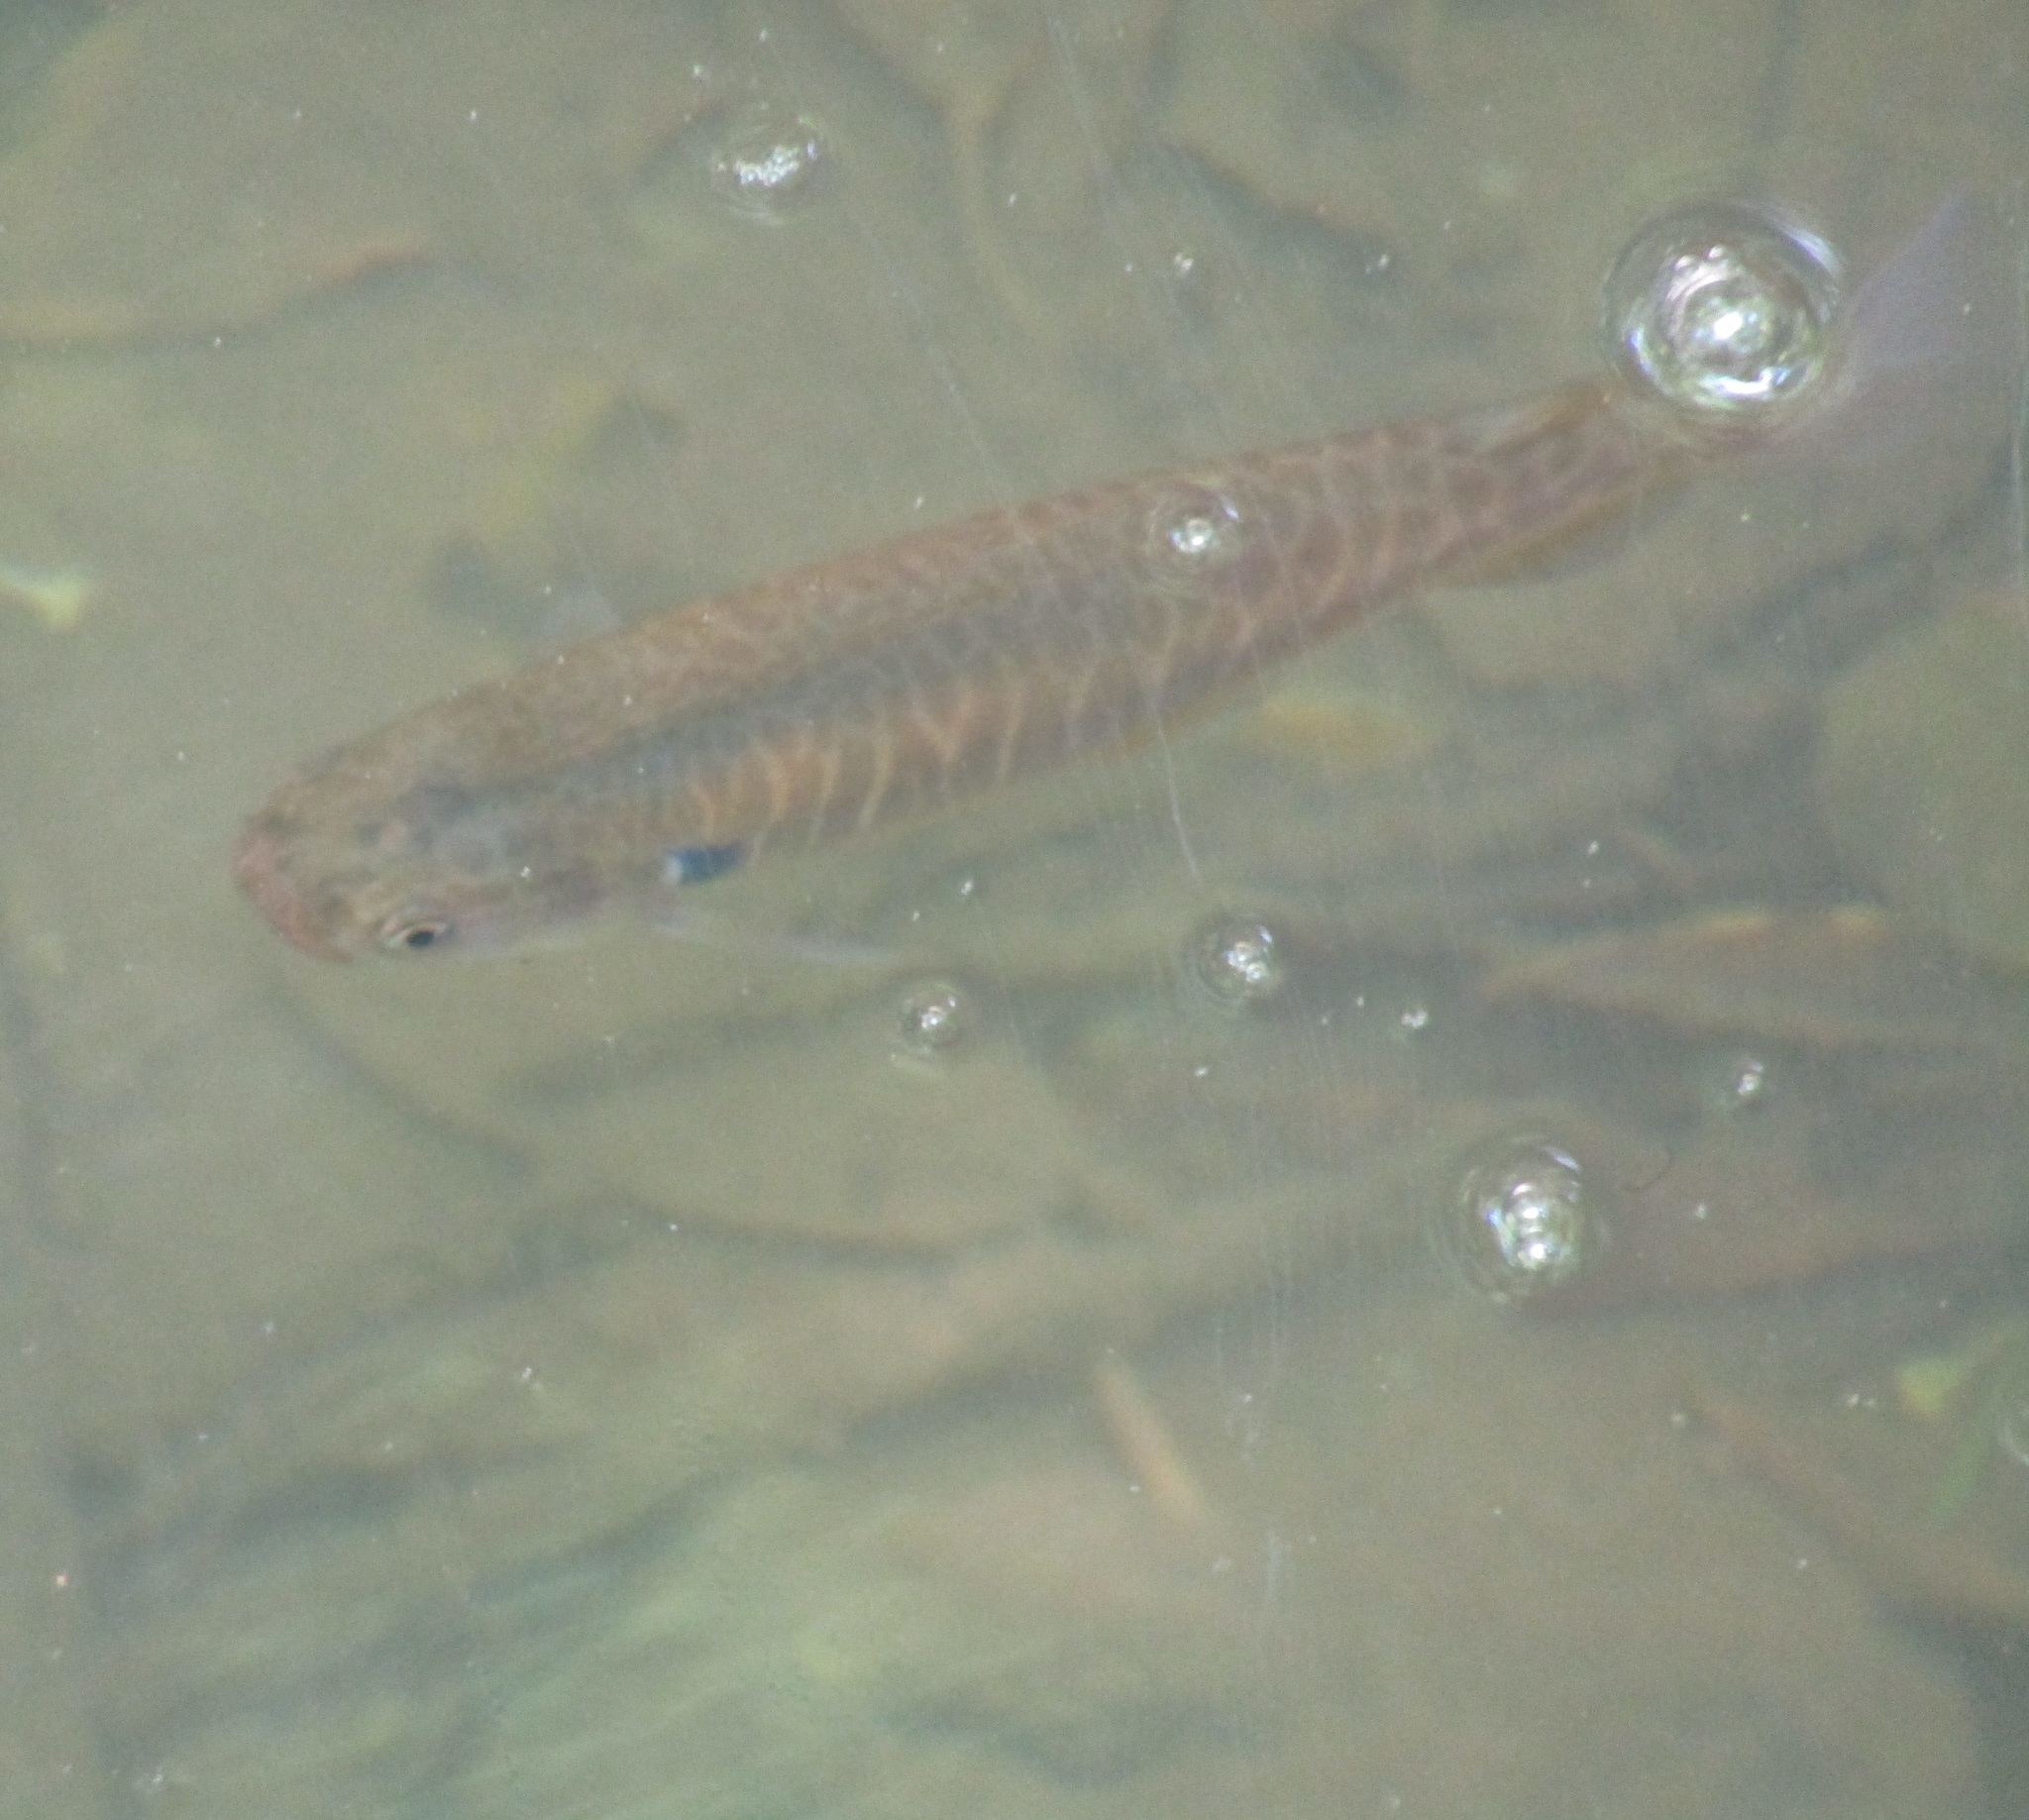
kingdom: Animalia
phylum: Chordata
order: Osmeriformes
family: Galaxiidae
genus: Galaxias
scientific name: Galaxias fasciatus
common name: Banded kokopu
